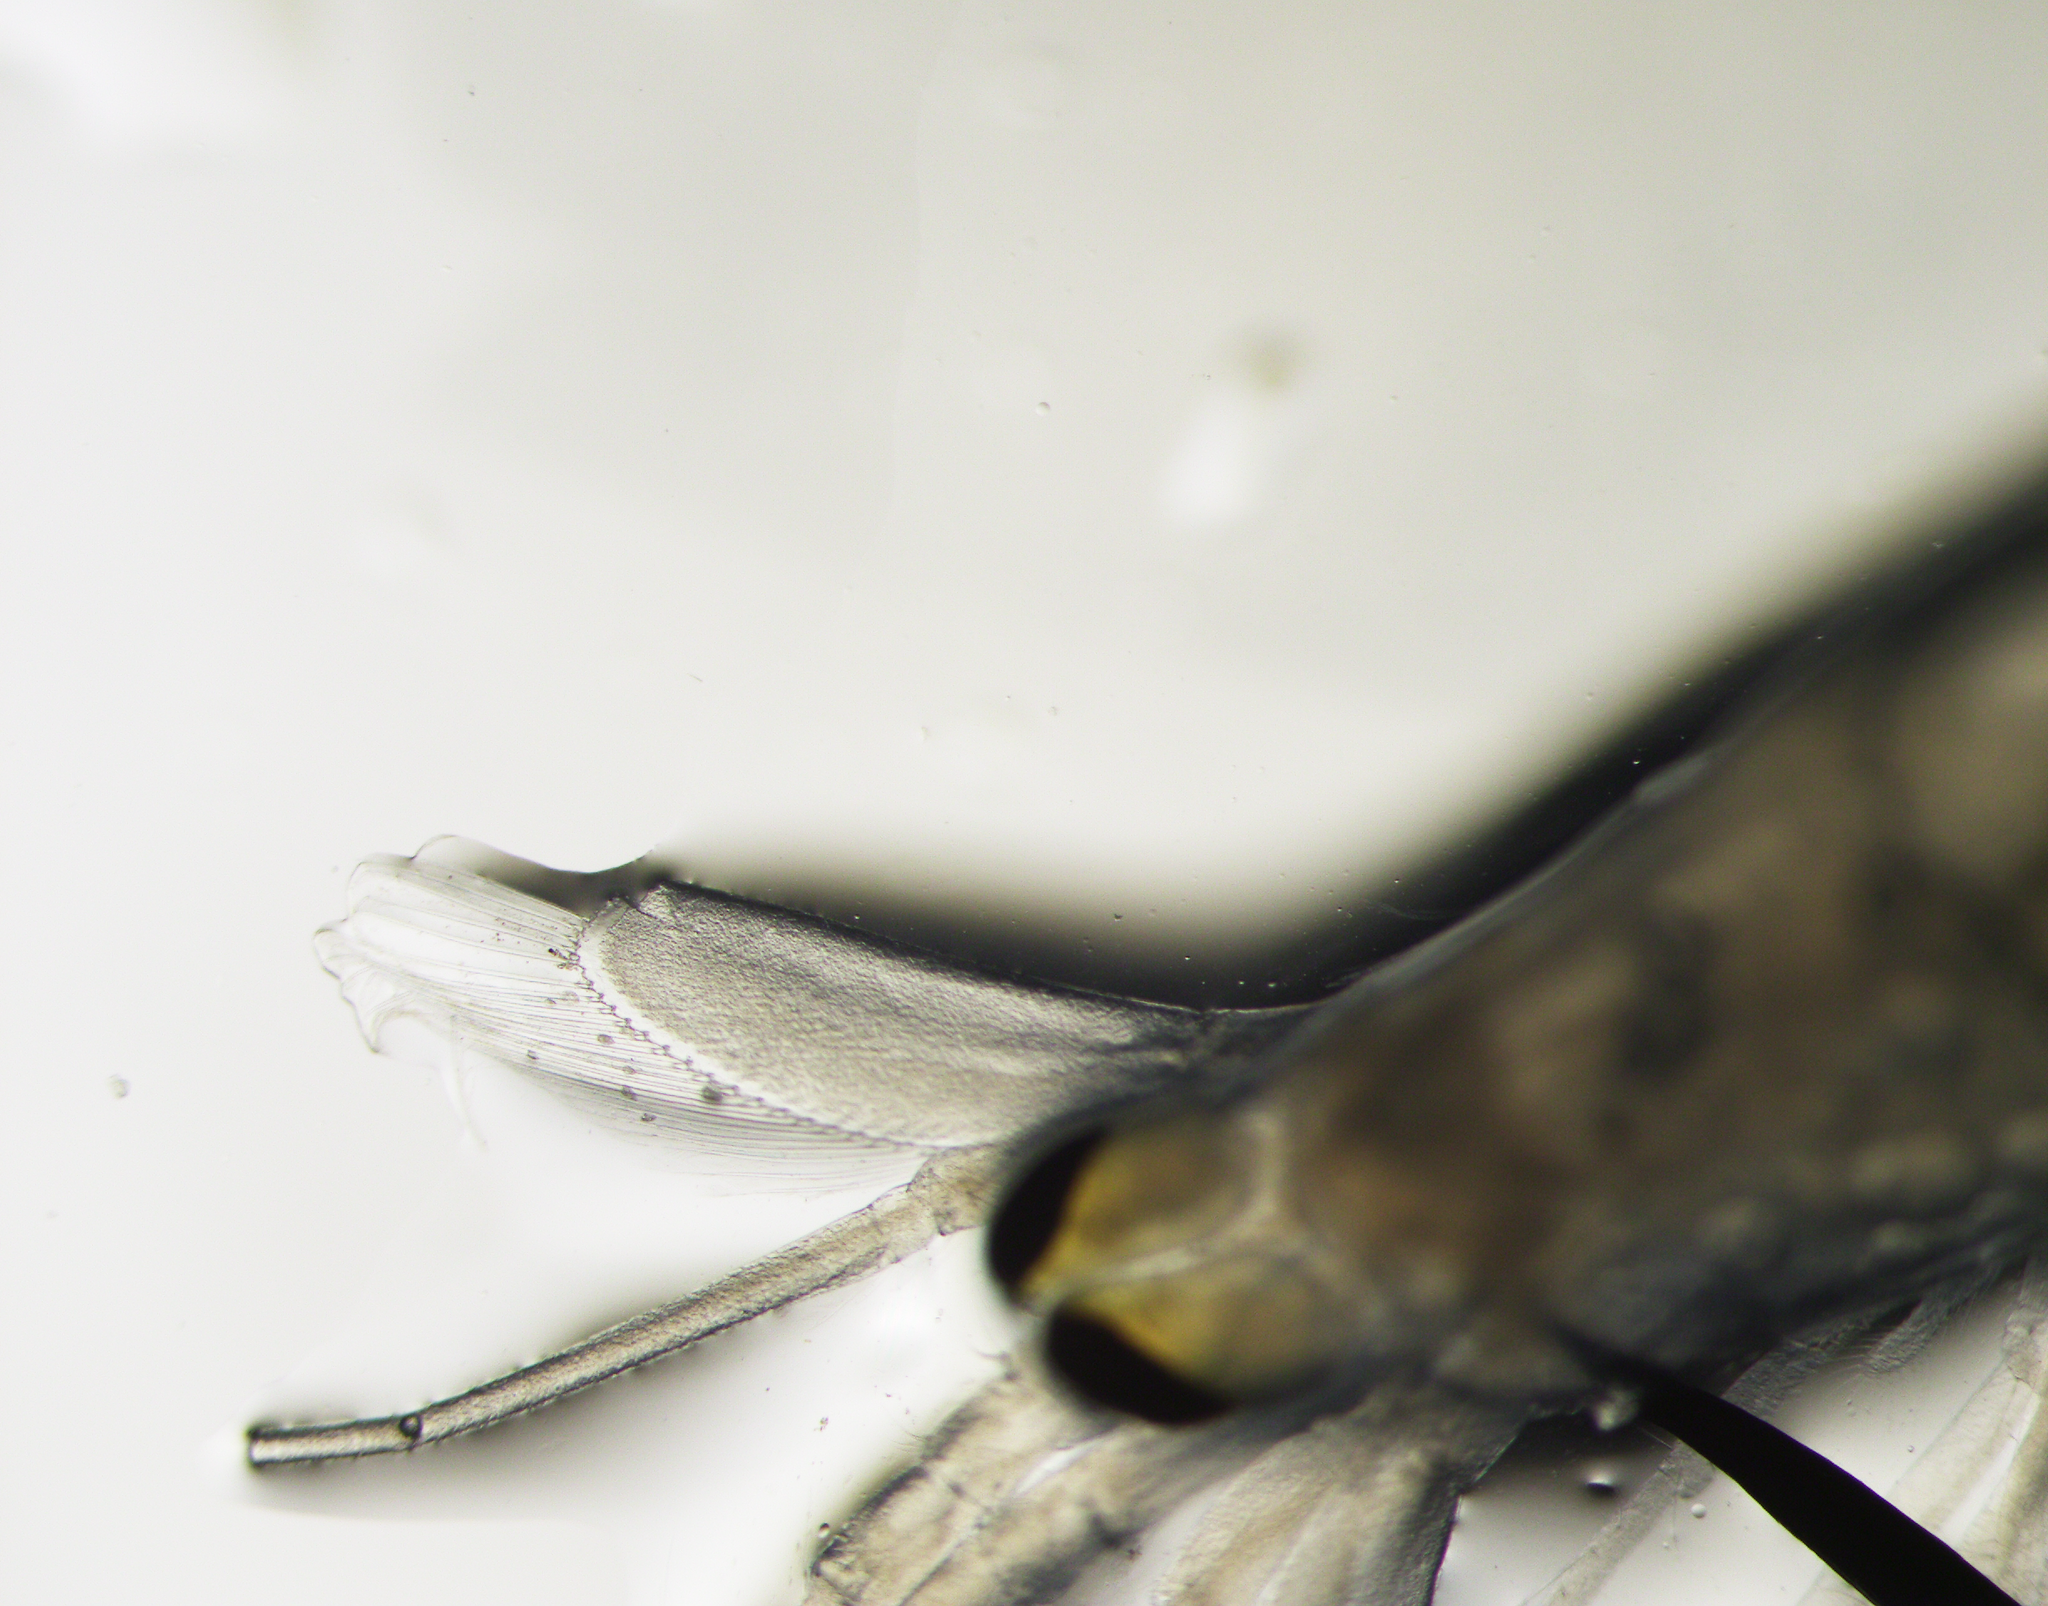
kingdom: Animalia
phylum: Arthropoda
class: Malacostraca
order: Decapoda
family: Pasiphaeidae
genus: Pasiphaea
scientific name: Pasiphaea multidentata
